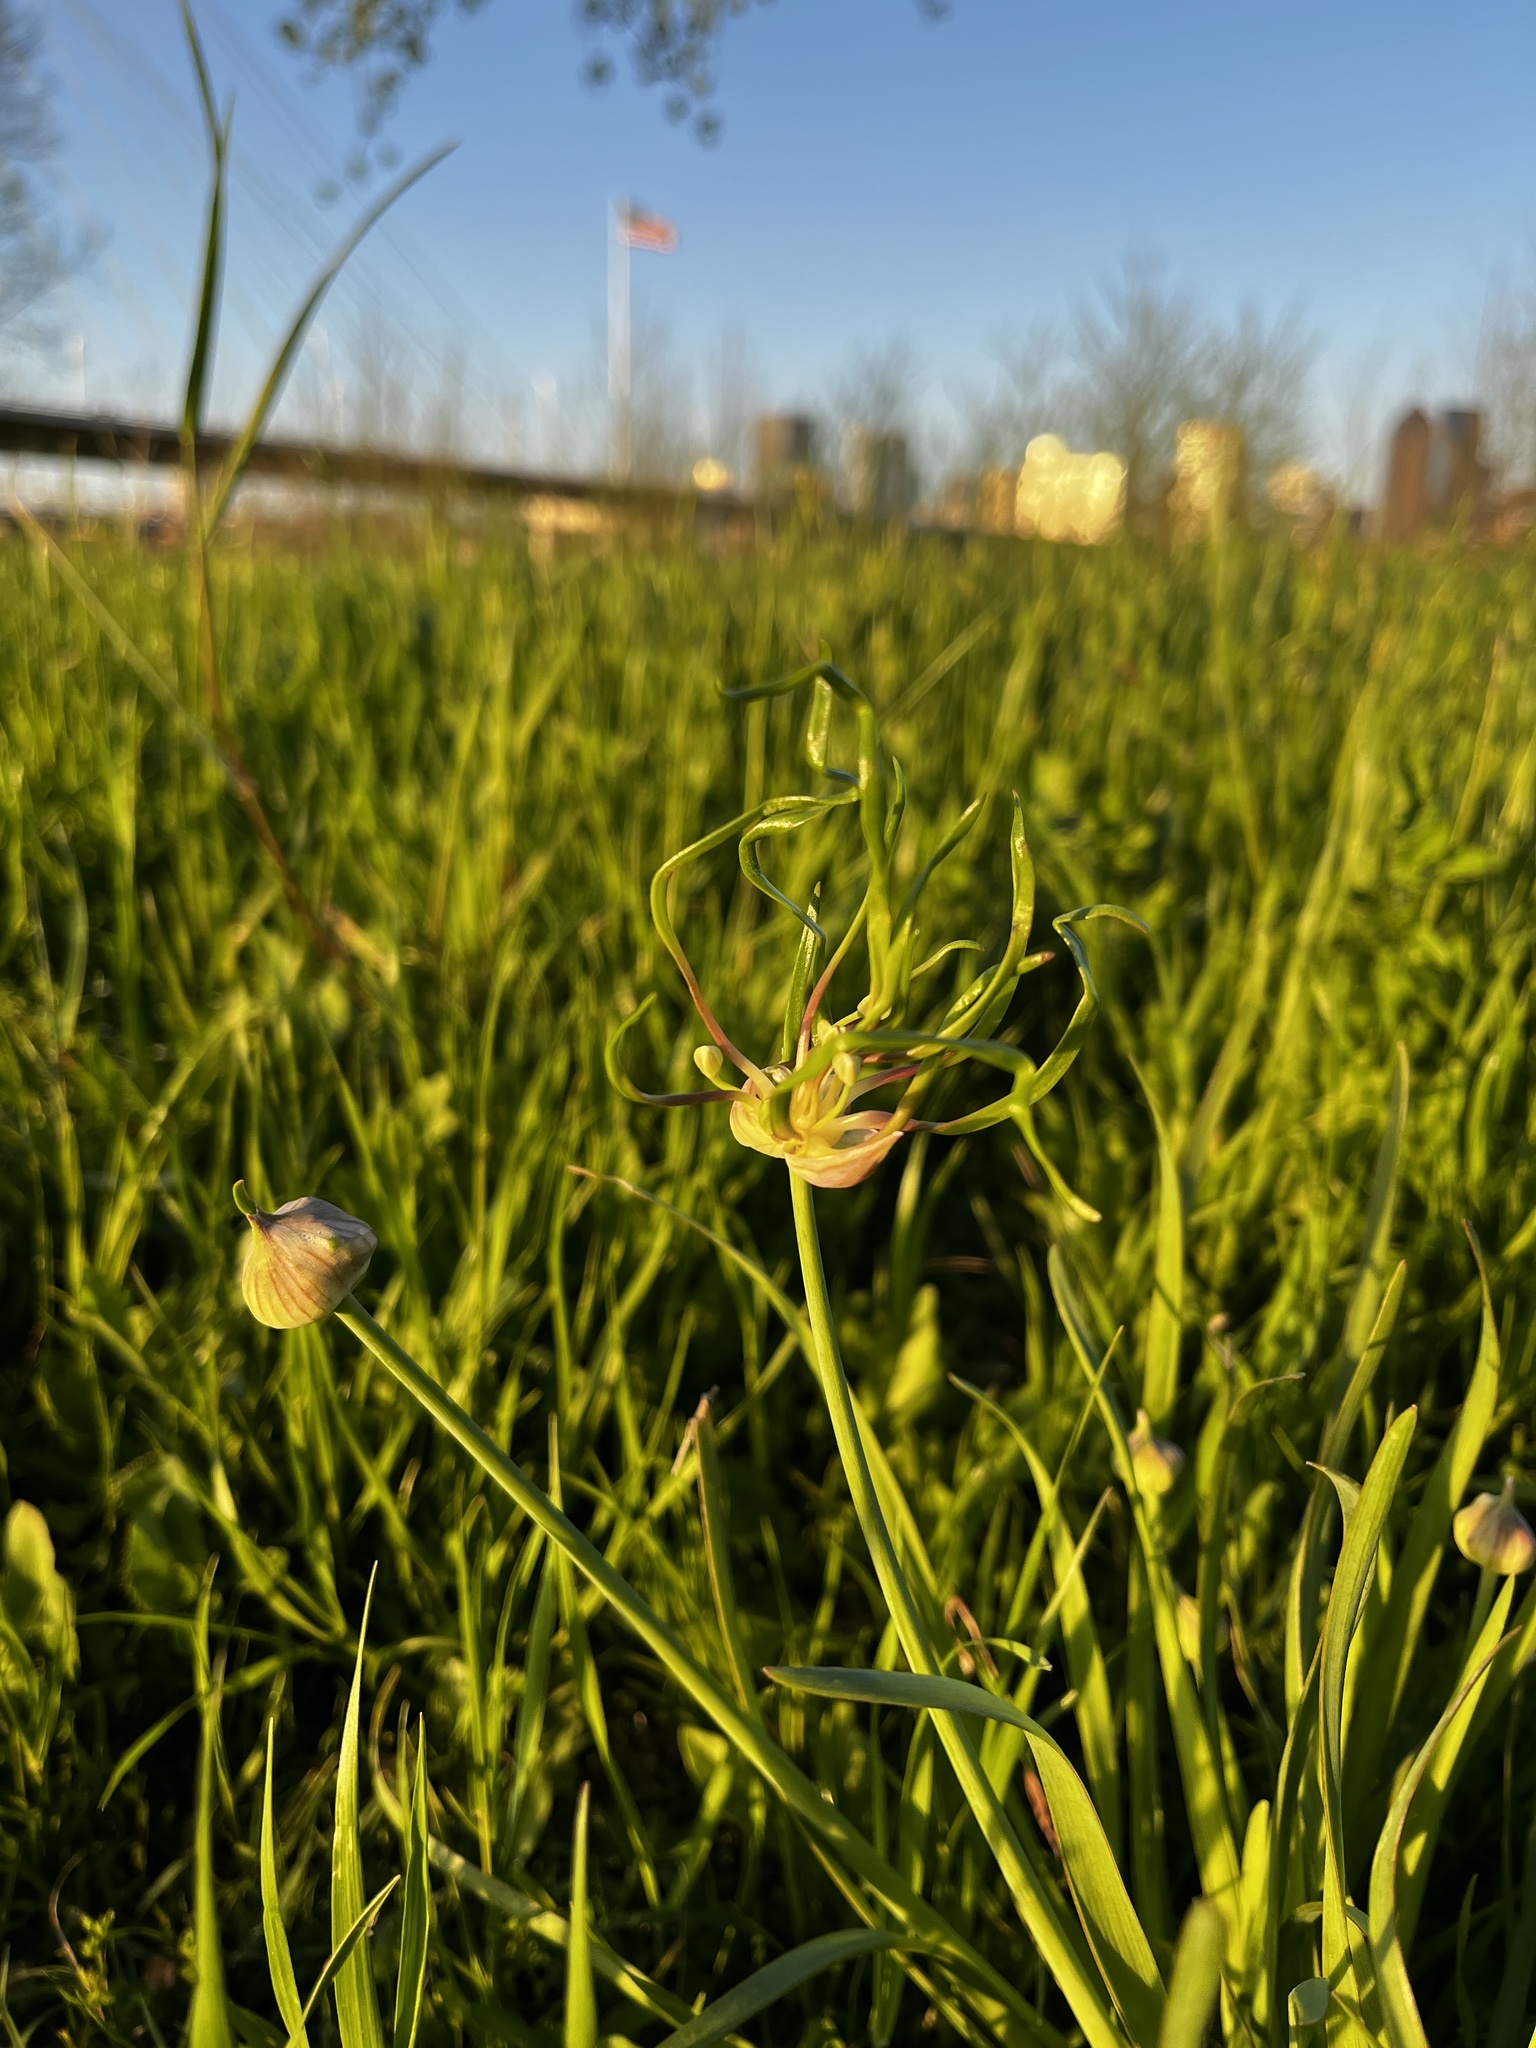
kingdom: Plantae
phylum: Tracheophyta
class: Liliopsida
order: Asparagales
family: Amaryllidaceae
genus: Allium
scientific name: Allium canadense
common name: Meadow garlic
